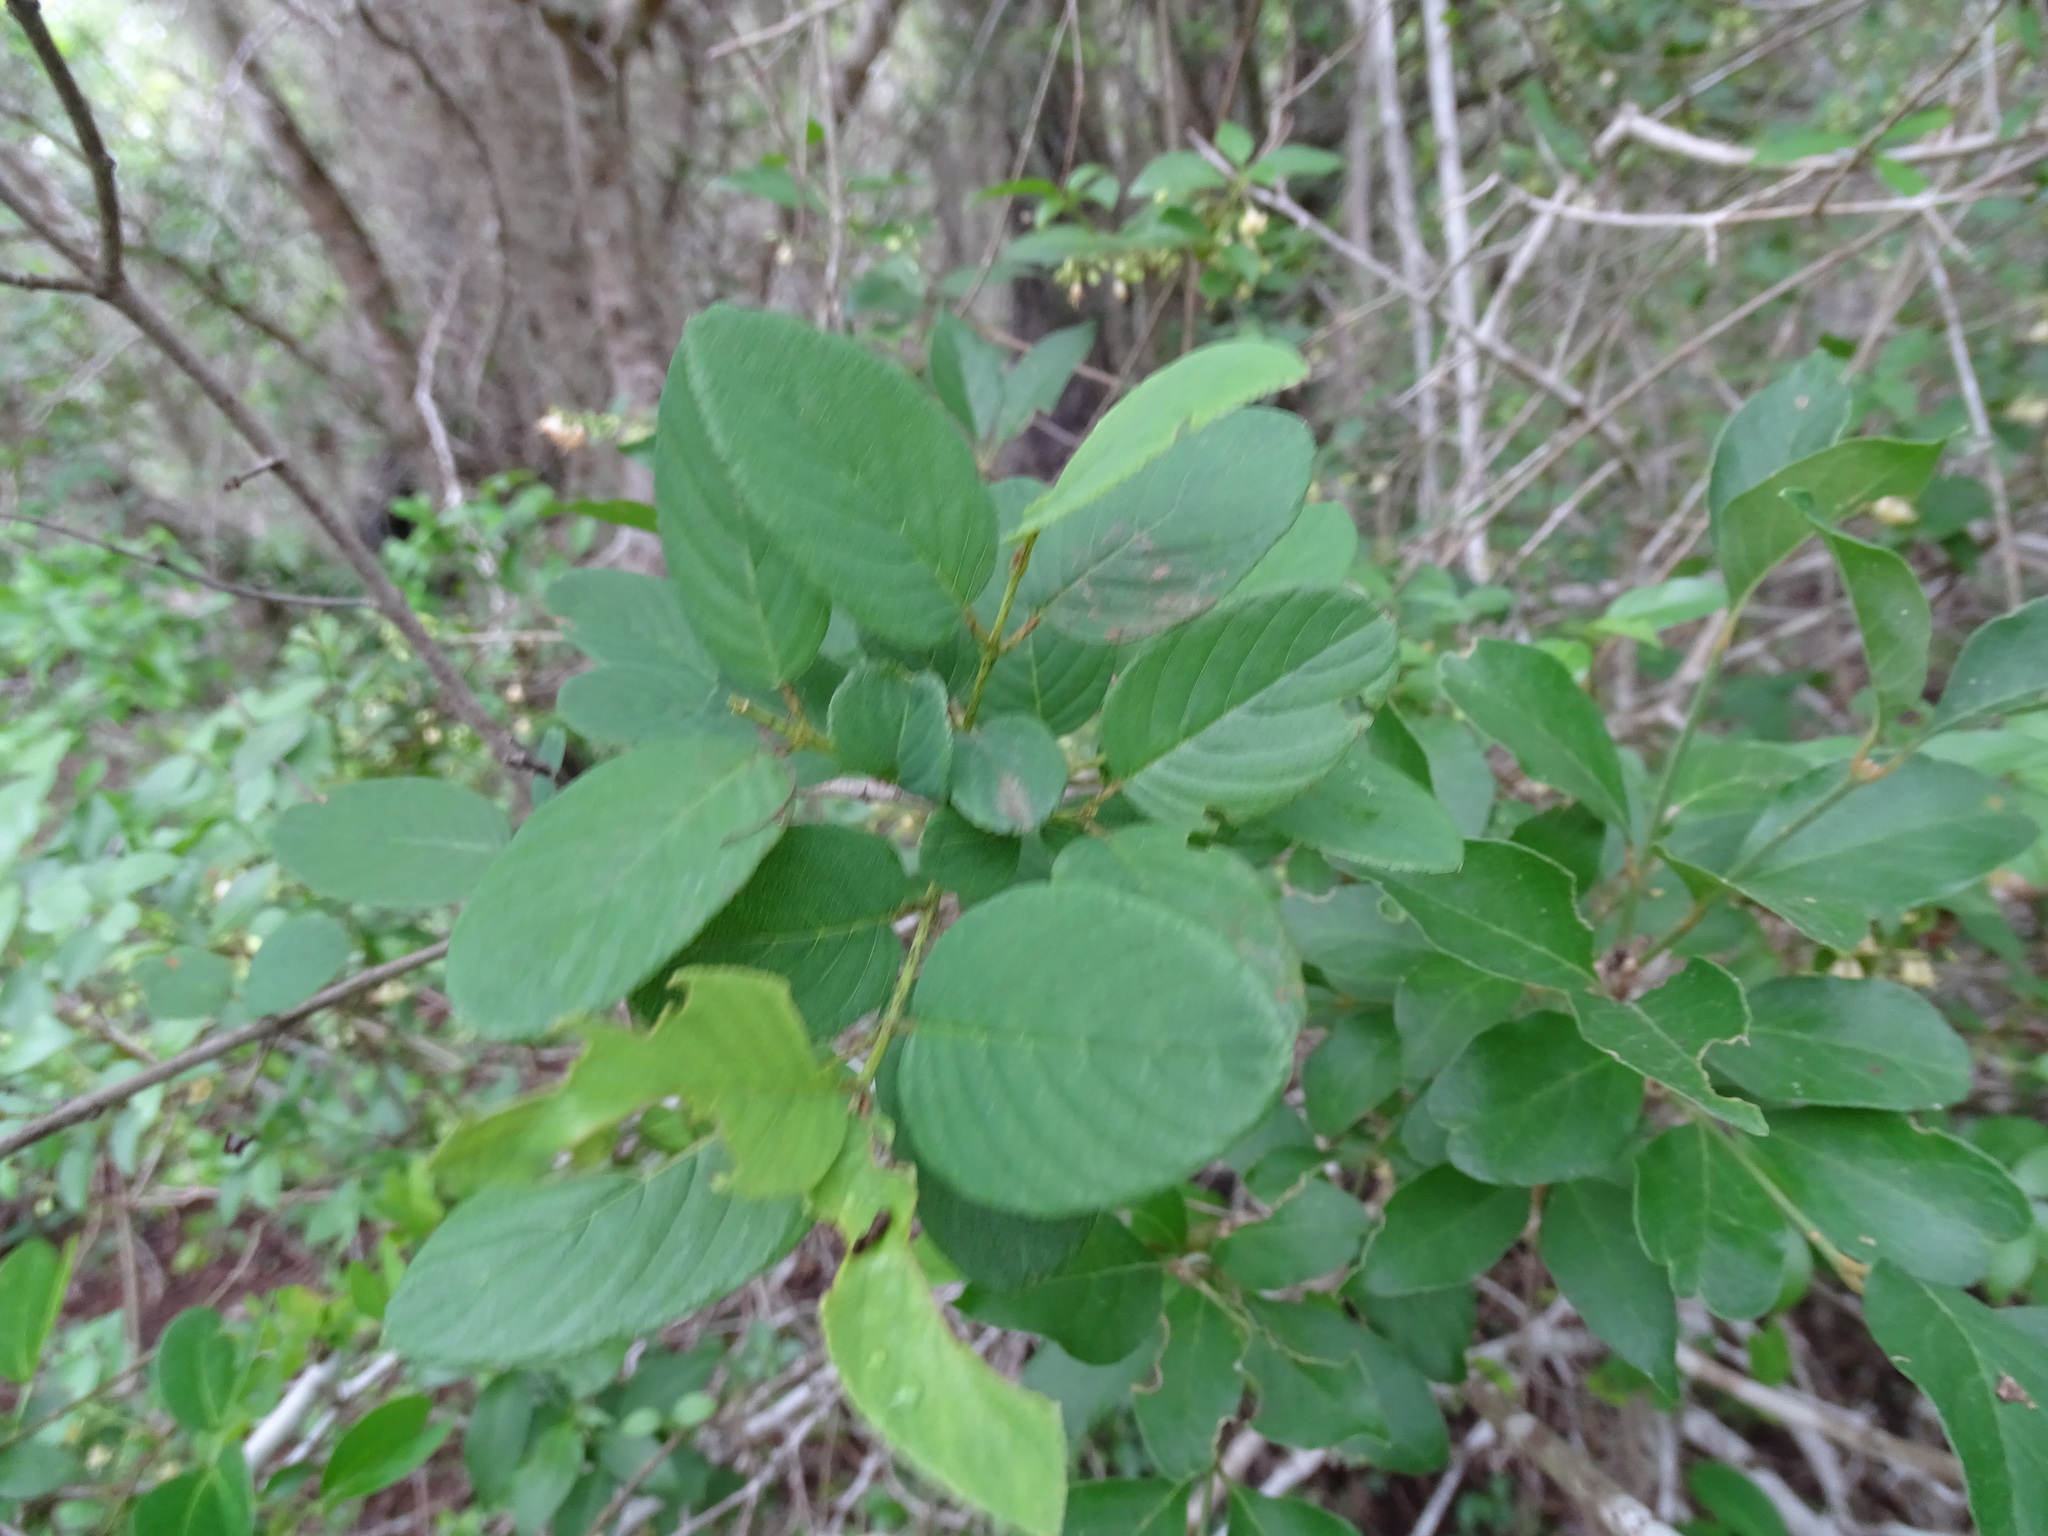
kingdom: Plantae
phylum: Tracheophyta
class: Magnoliopsida
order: Rosales
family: Rhamnaceae
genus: Karwinskia
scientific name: Karwinskia humboldtiana
